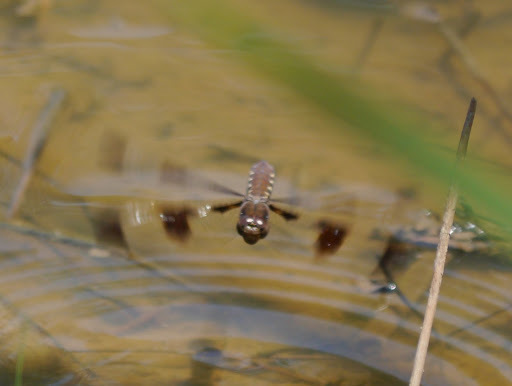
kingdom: Animalia
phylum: Arthropoda
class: Insecta
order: Odonata
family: Libellulidae
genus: Plathemis
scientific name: Plathemis lydia
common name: Common whitetail
